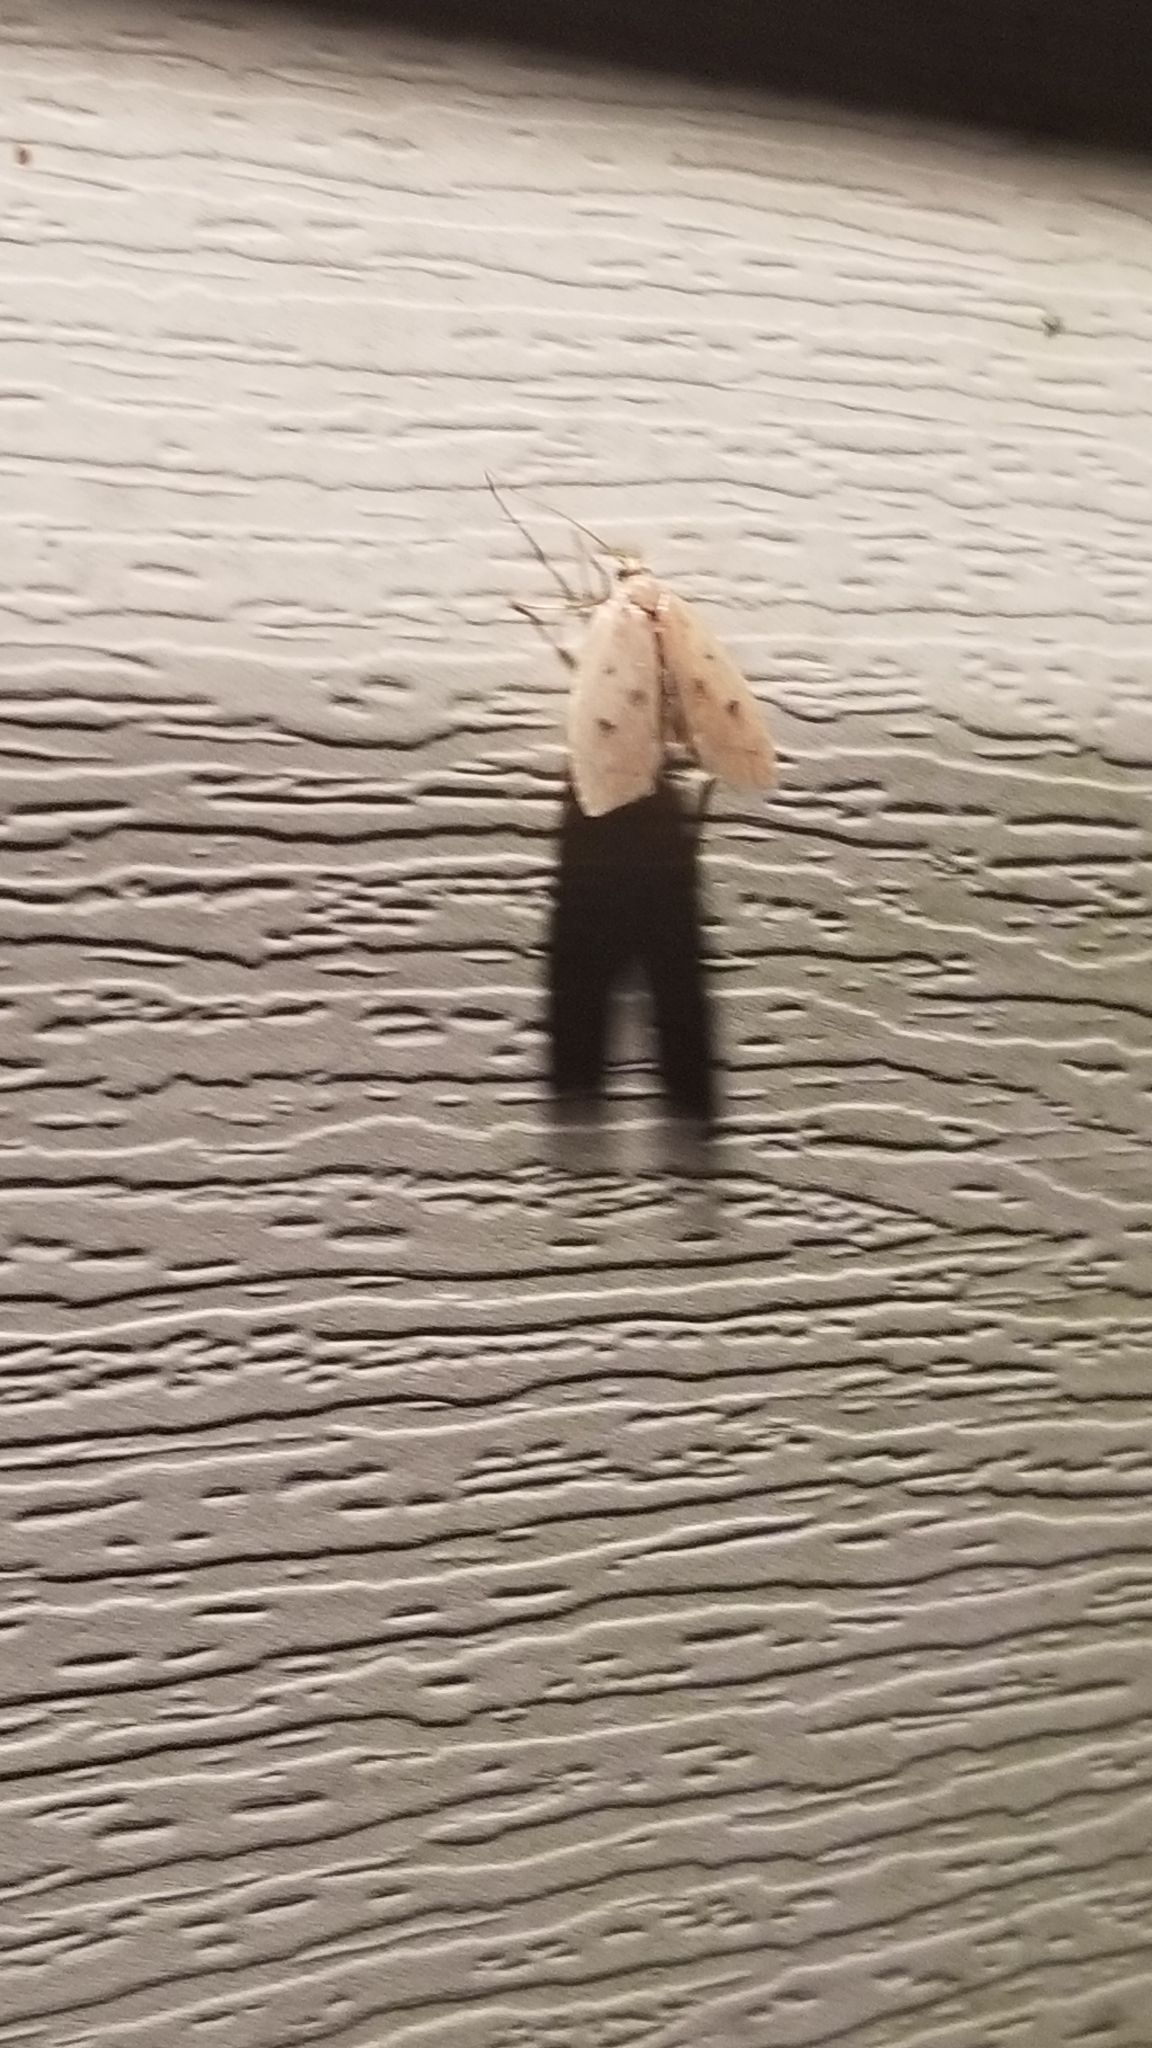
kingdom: Animalia
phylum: Arthropoda
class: Insecta
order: Lepidoptera
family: Peleopodidae
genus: Machimia
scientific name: Machimia tentoriferella
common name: Gold-striped leaftier moth
